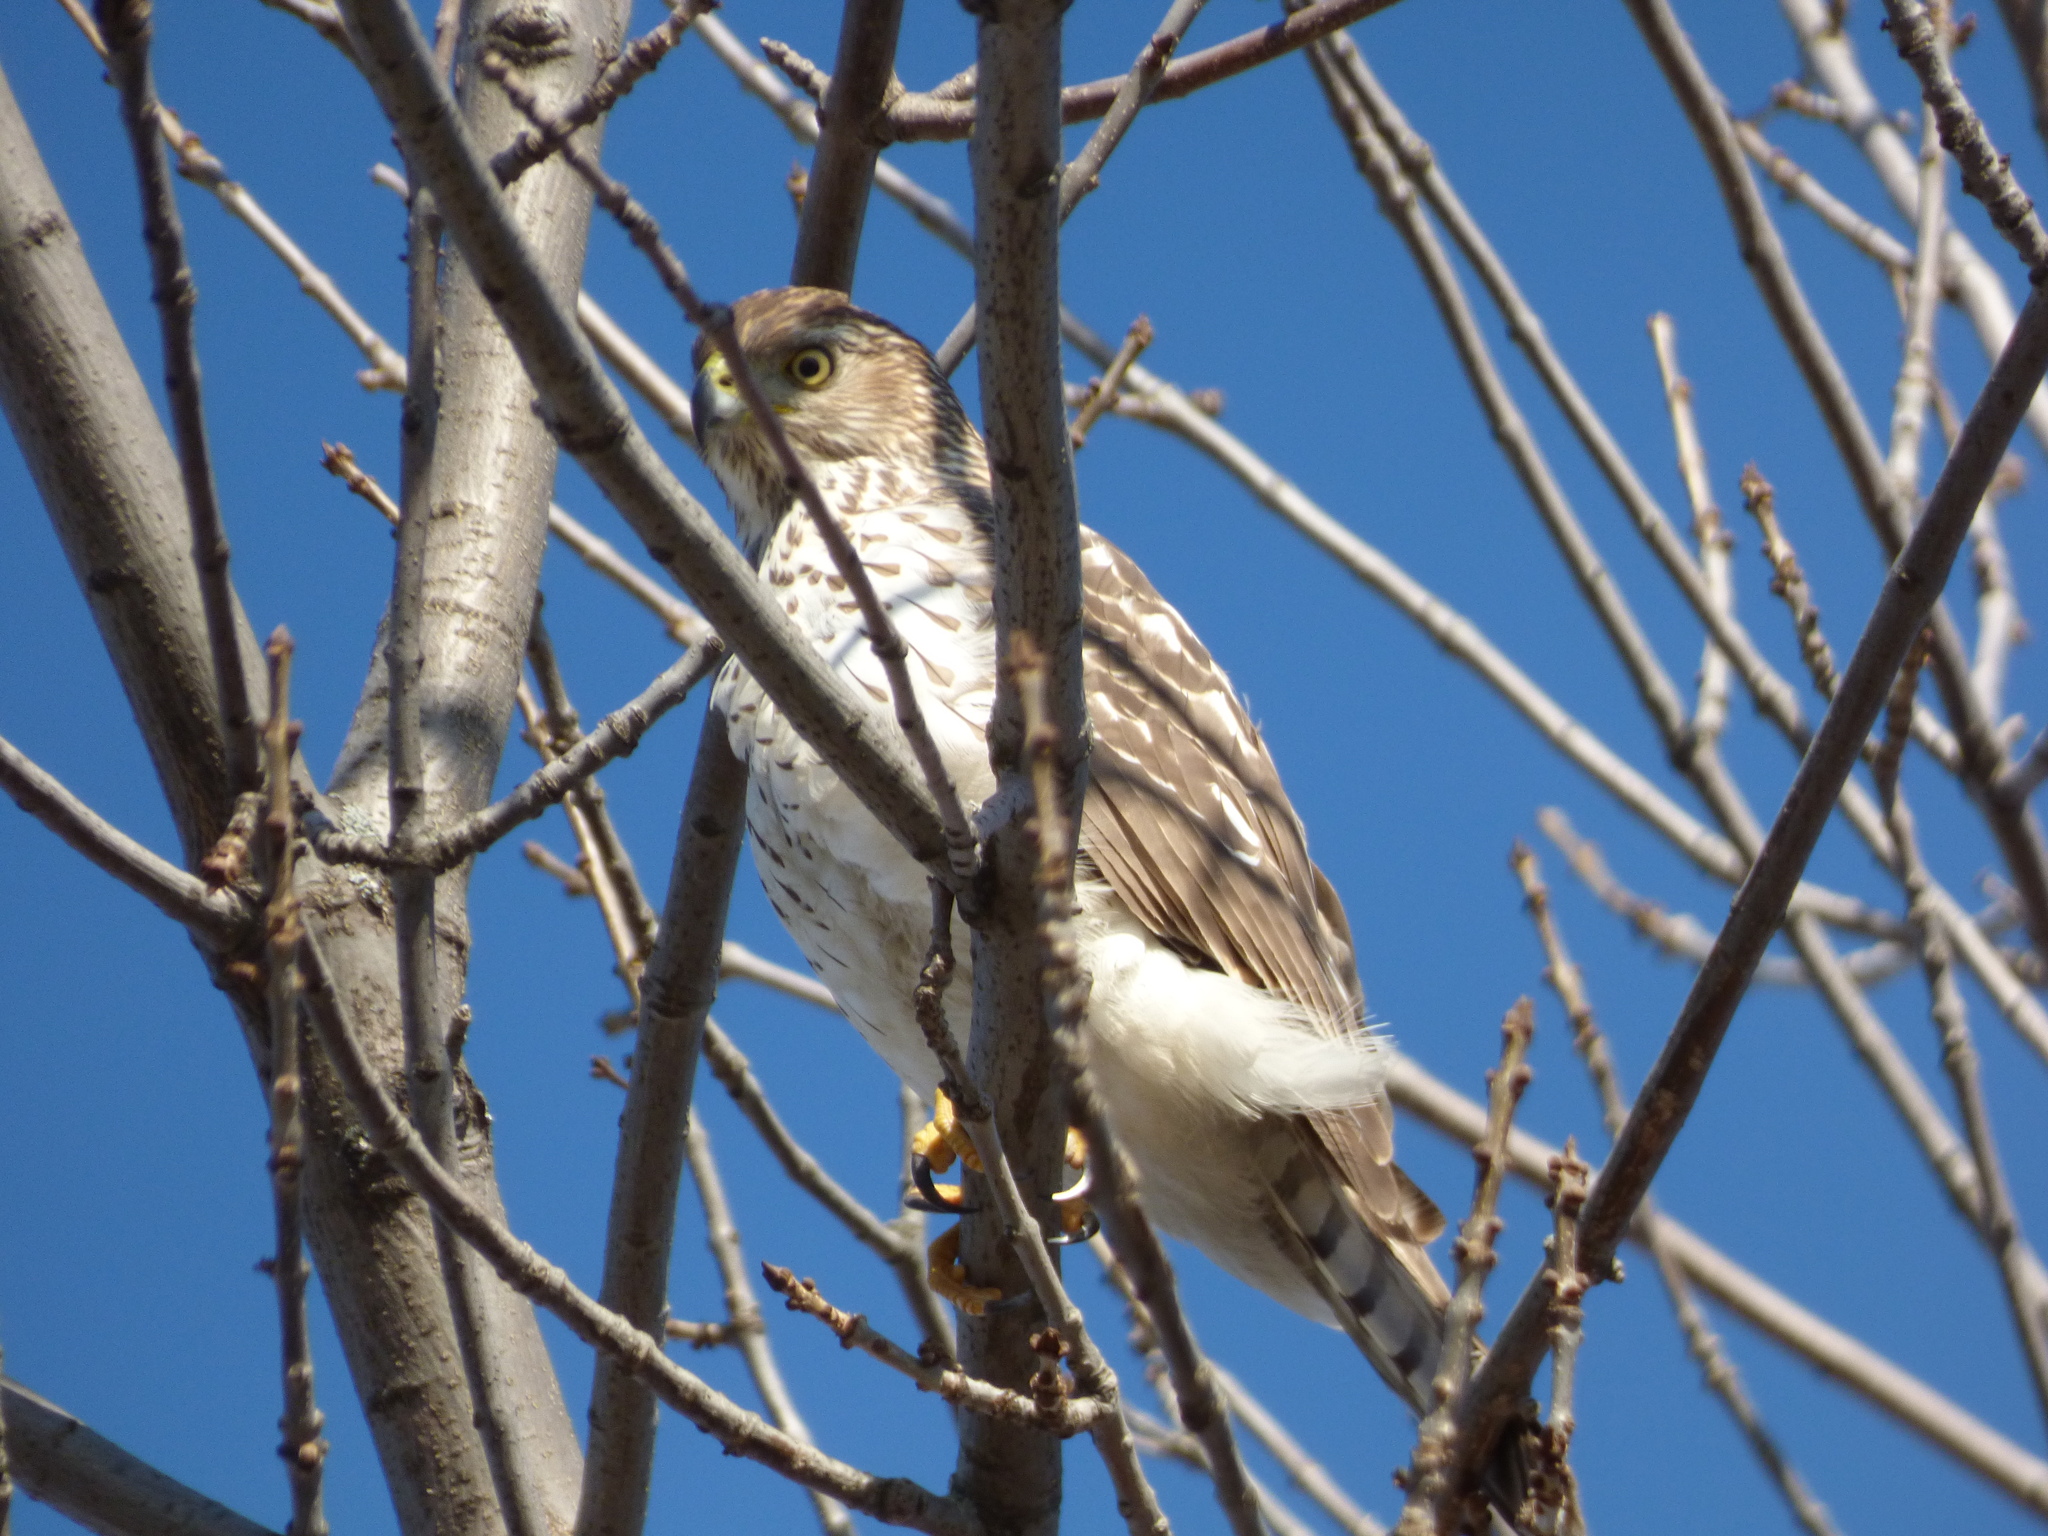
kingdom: Animalia
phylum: Chordata
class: Aves
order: Accipitriformes
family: Accipitridae
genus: Accipiter
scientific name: Accipiter cooperii
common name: Cooper's hawk
